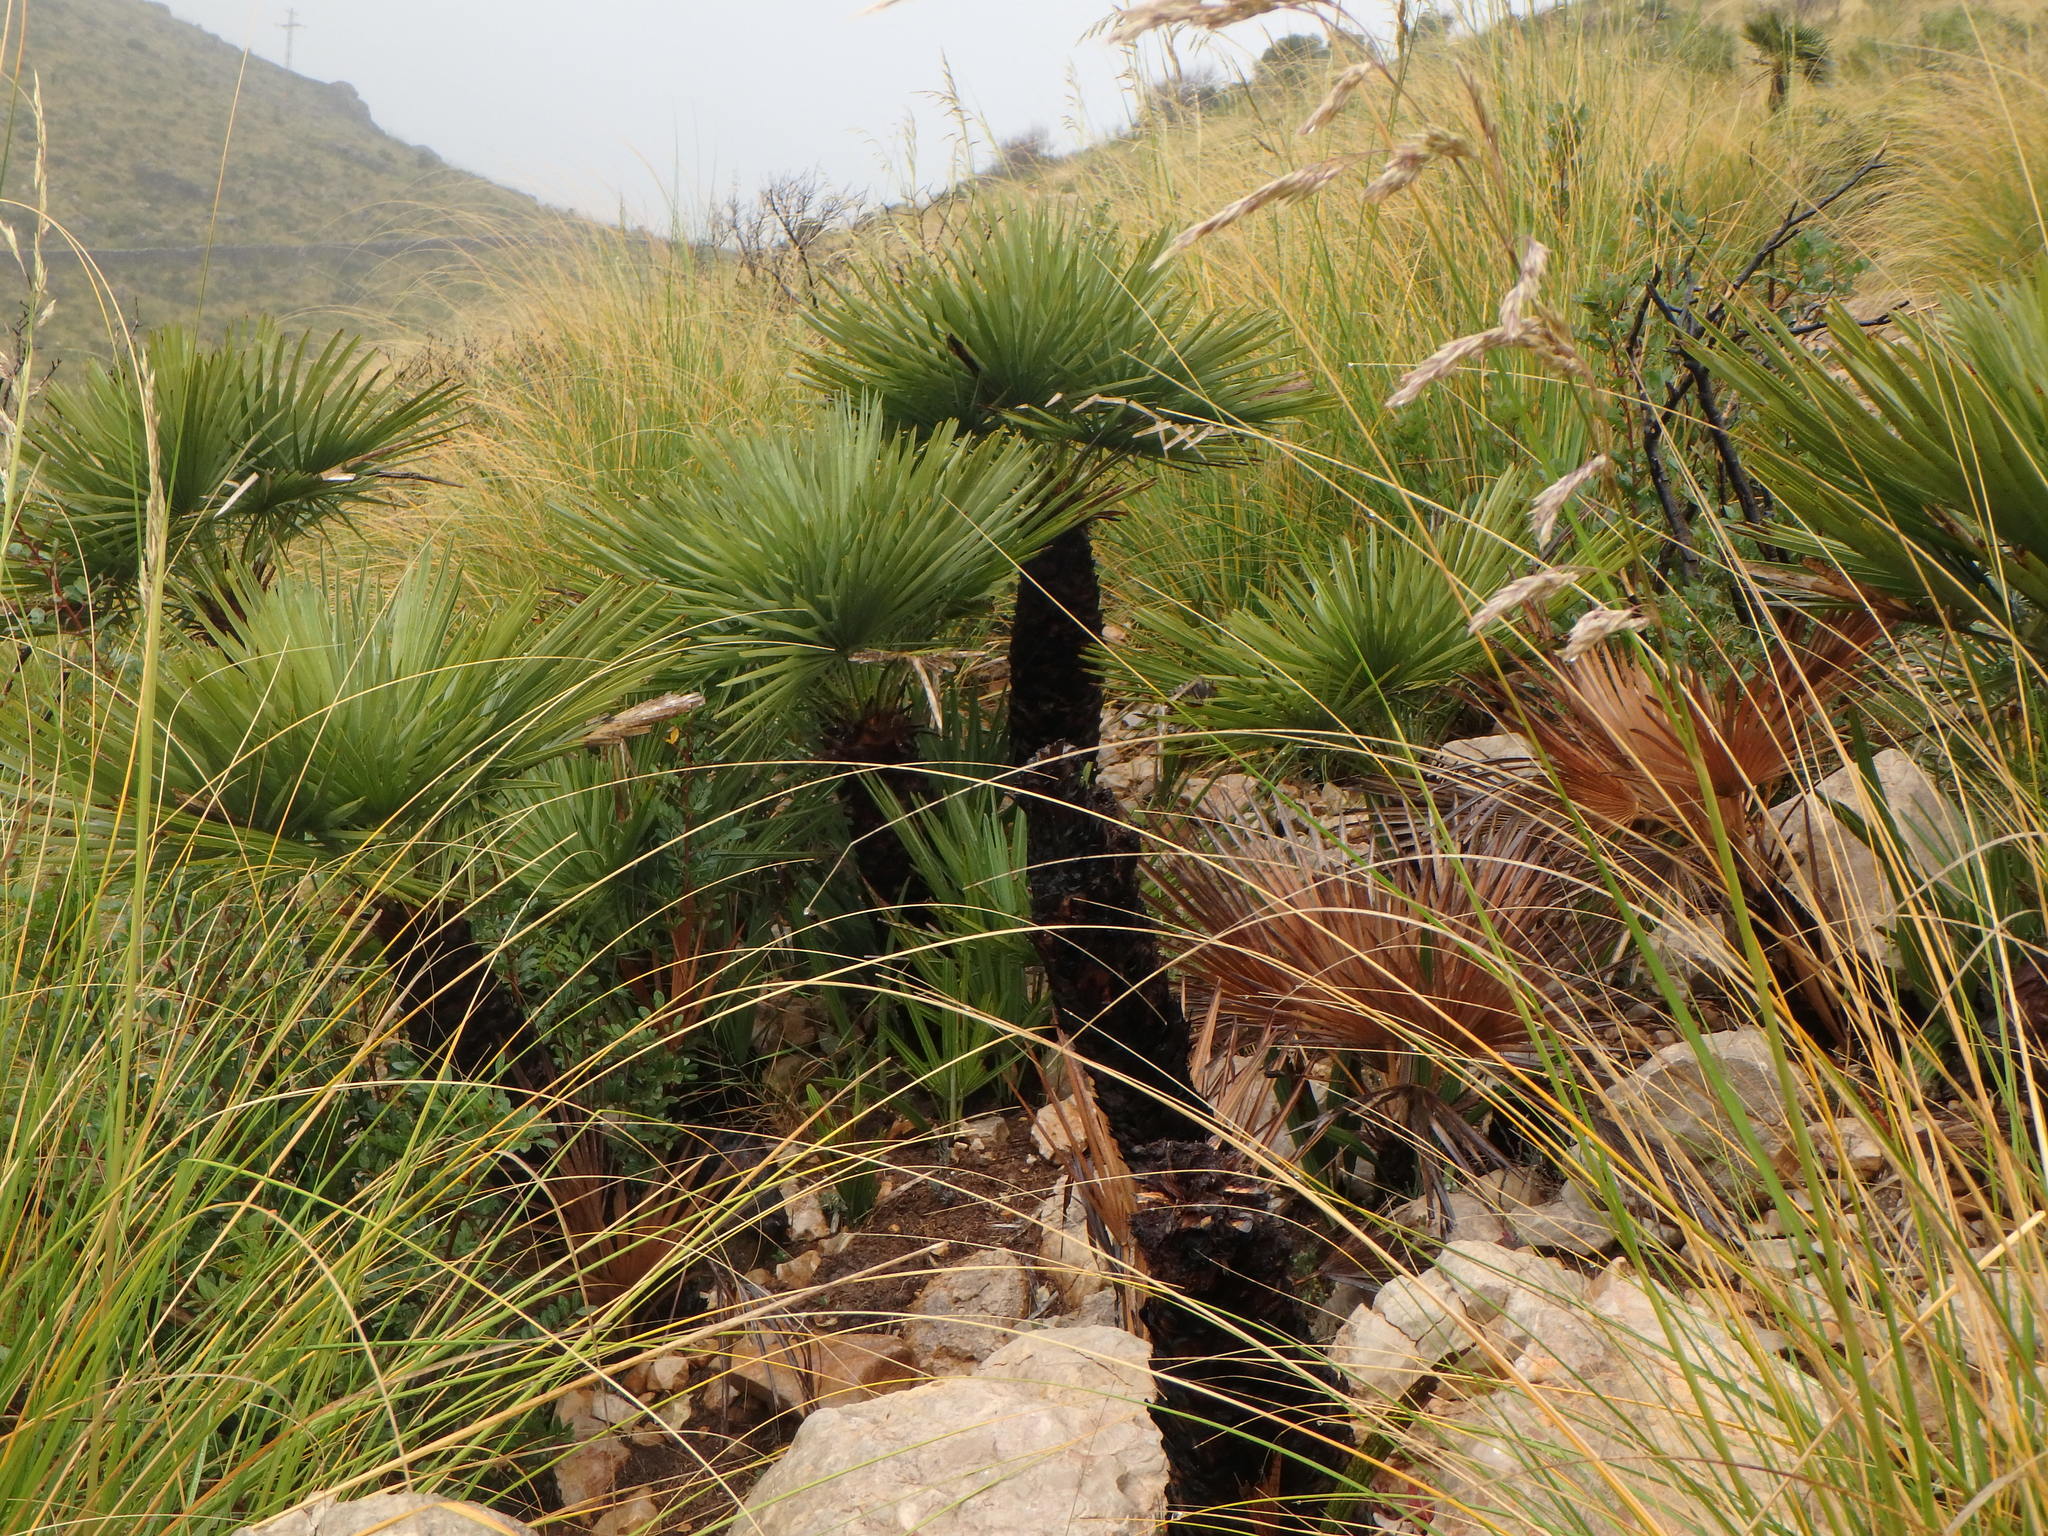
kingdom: Plantae
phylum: Tracheophyta
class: Liliopsida
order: Arecales
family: Arecaceae
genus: Chamaerops
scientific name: Chamaerops humilis
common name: Dwarf fan palm
